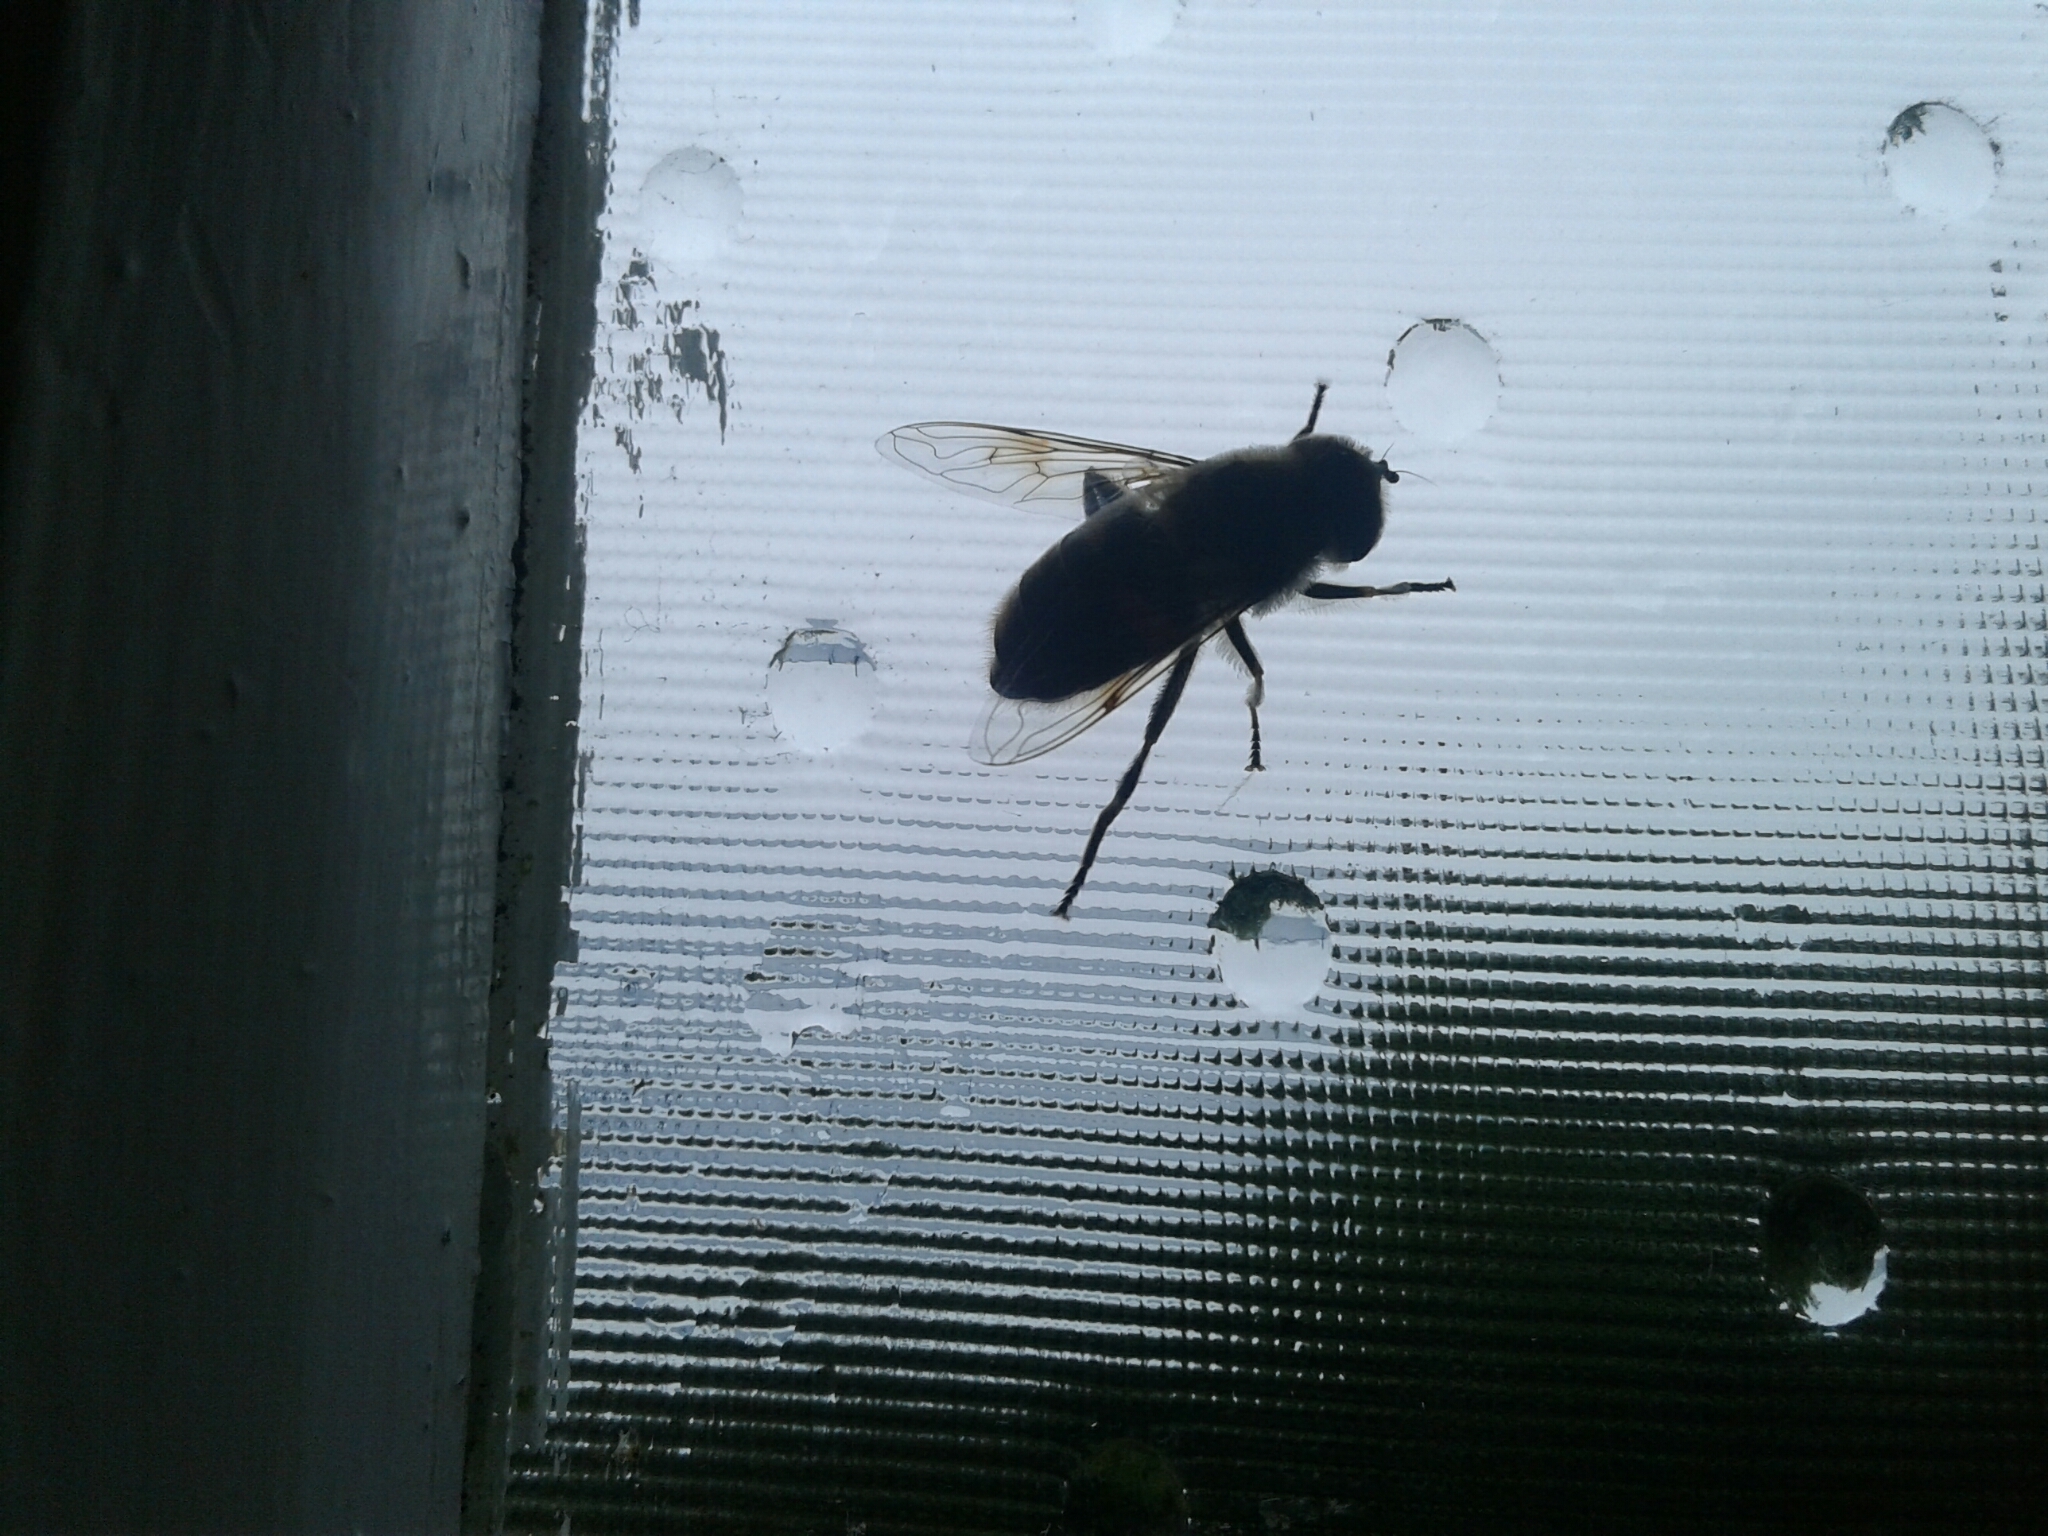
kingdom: Animalia
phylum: Arthropoda
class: Insecta
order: Diptera
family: Syrphidae
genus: Eristalis
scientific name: Eristalis tenax
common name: Drone fly
